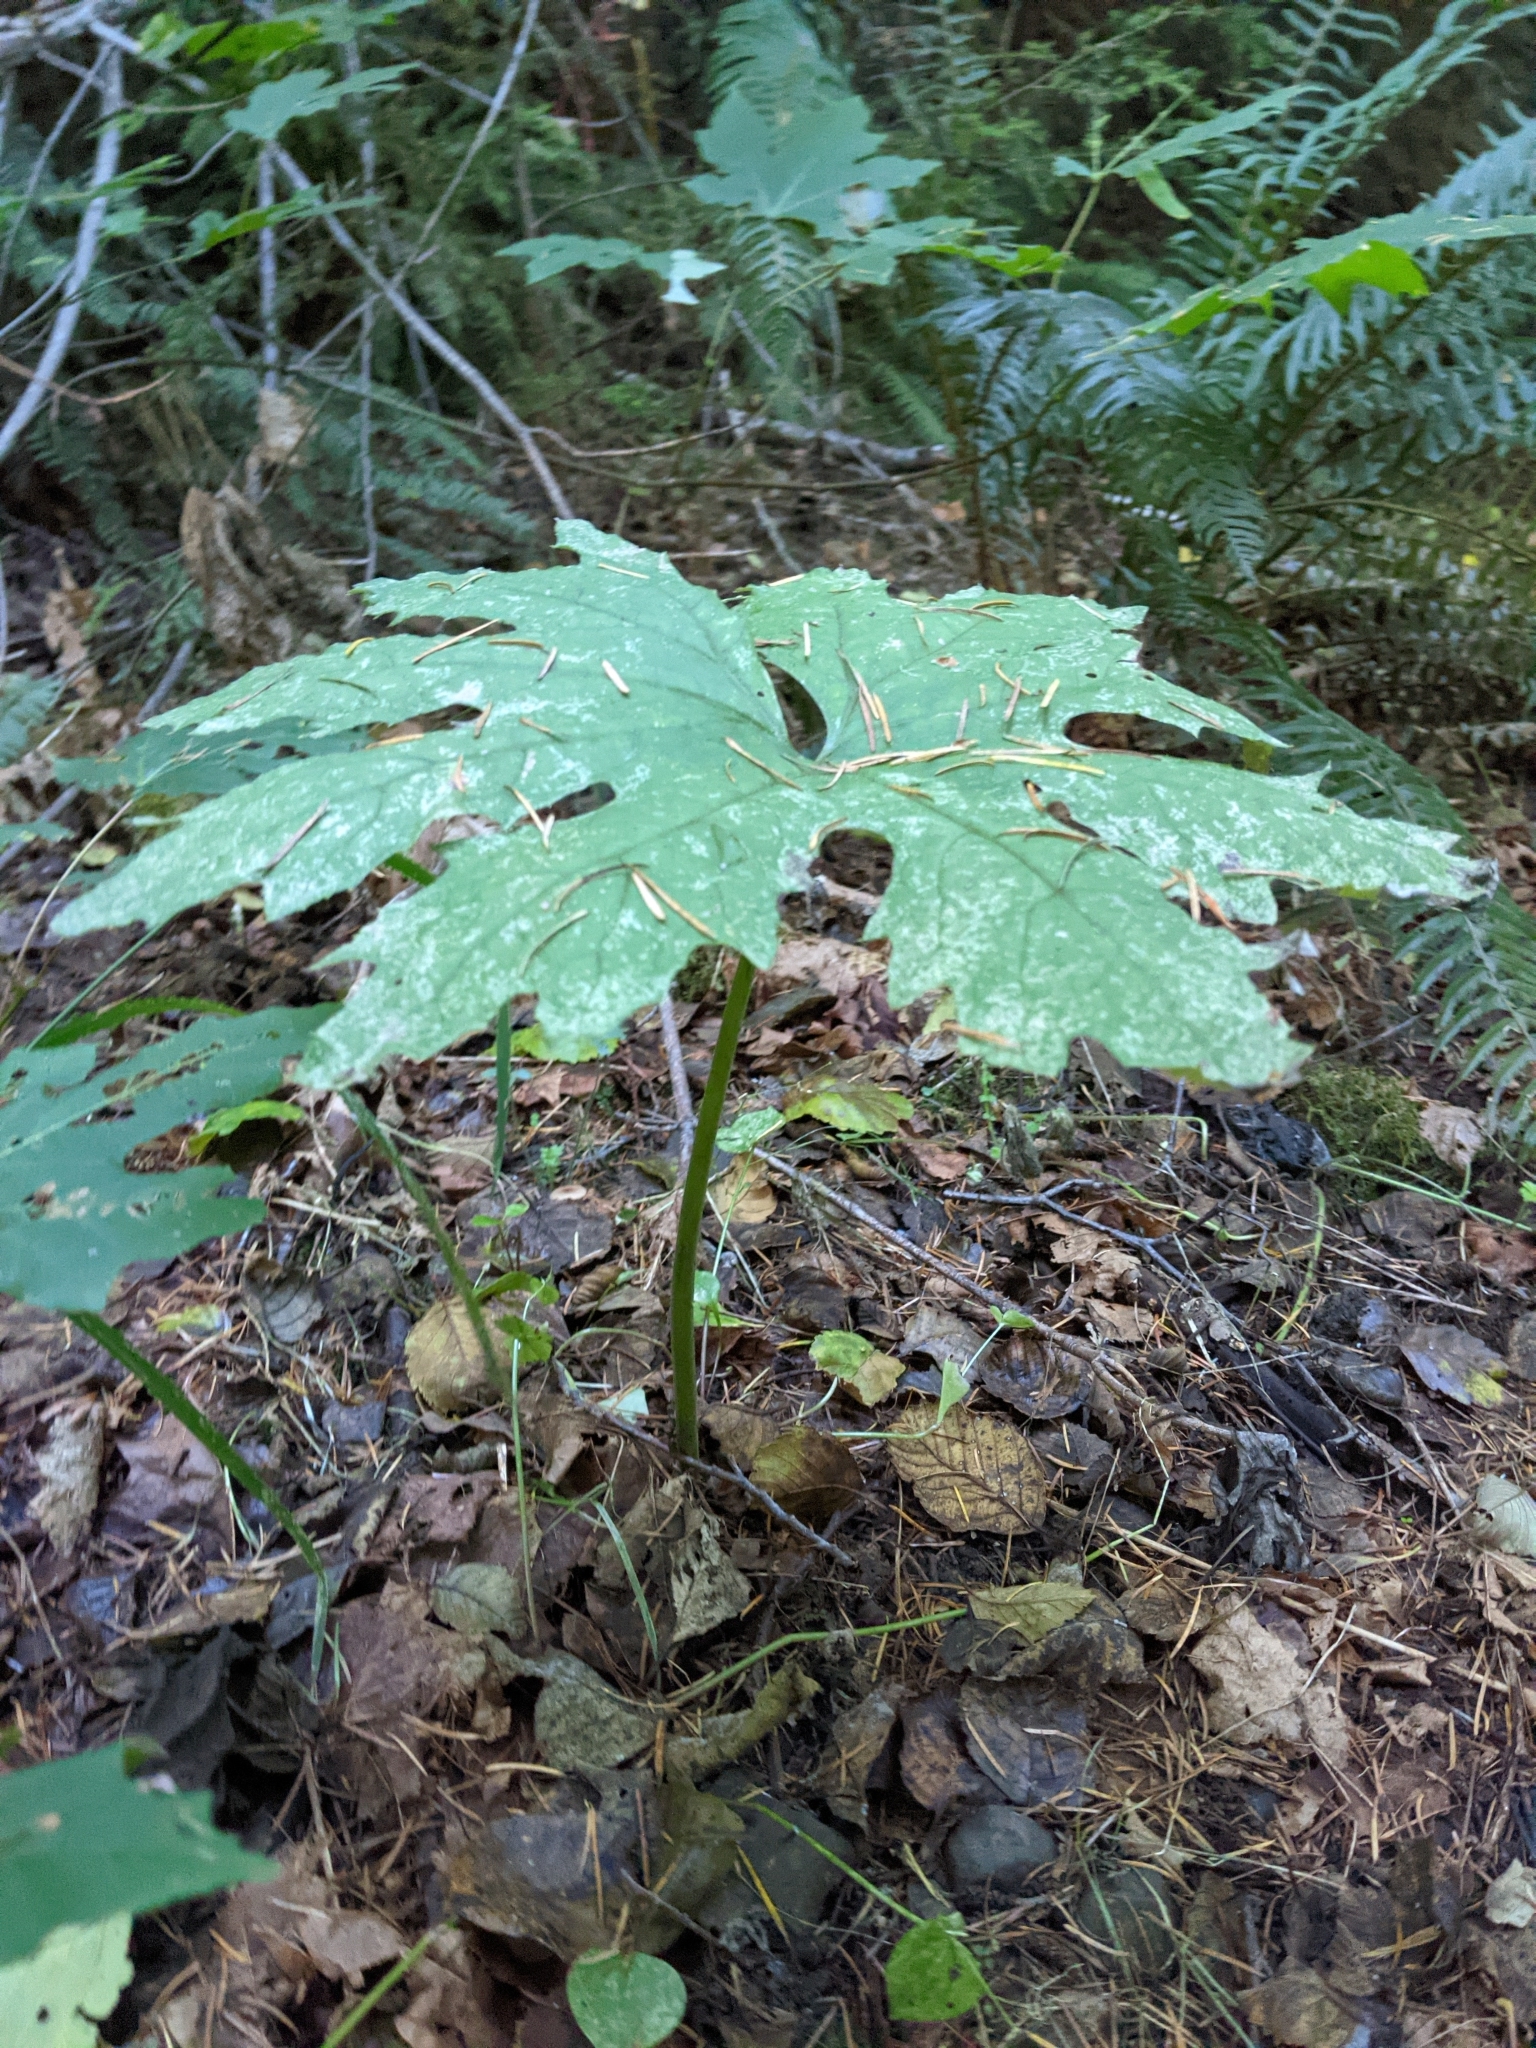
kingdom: Plantae
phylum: Tracheophyta
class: Magnoliopsida
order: Asterales
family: Asteraceae
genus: Petasites
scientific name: Petasites frigidus
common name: Arctic butterbur
